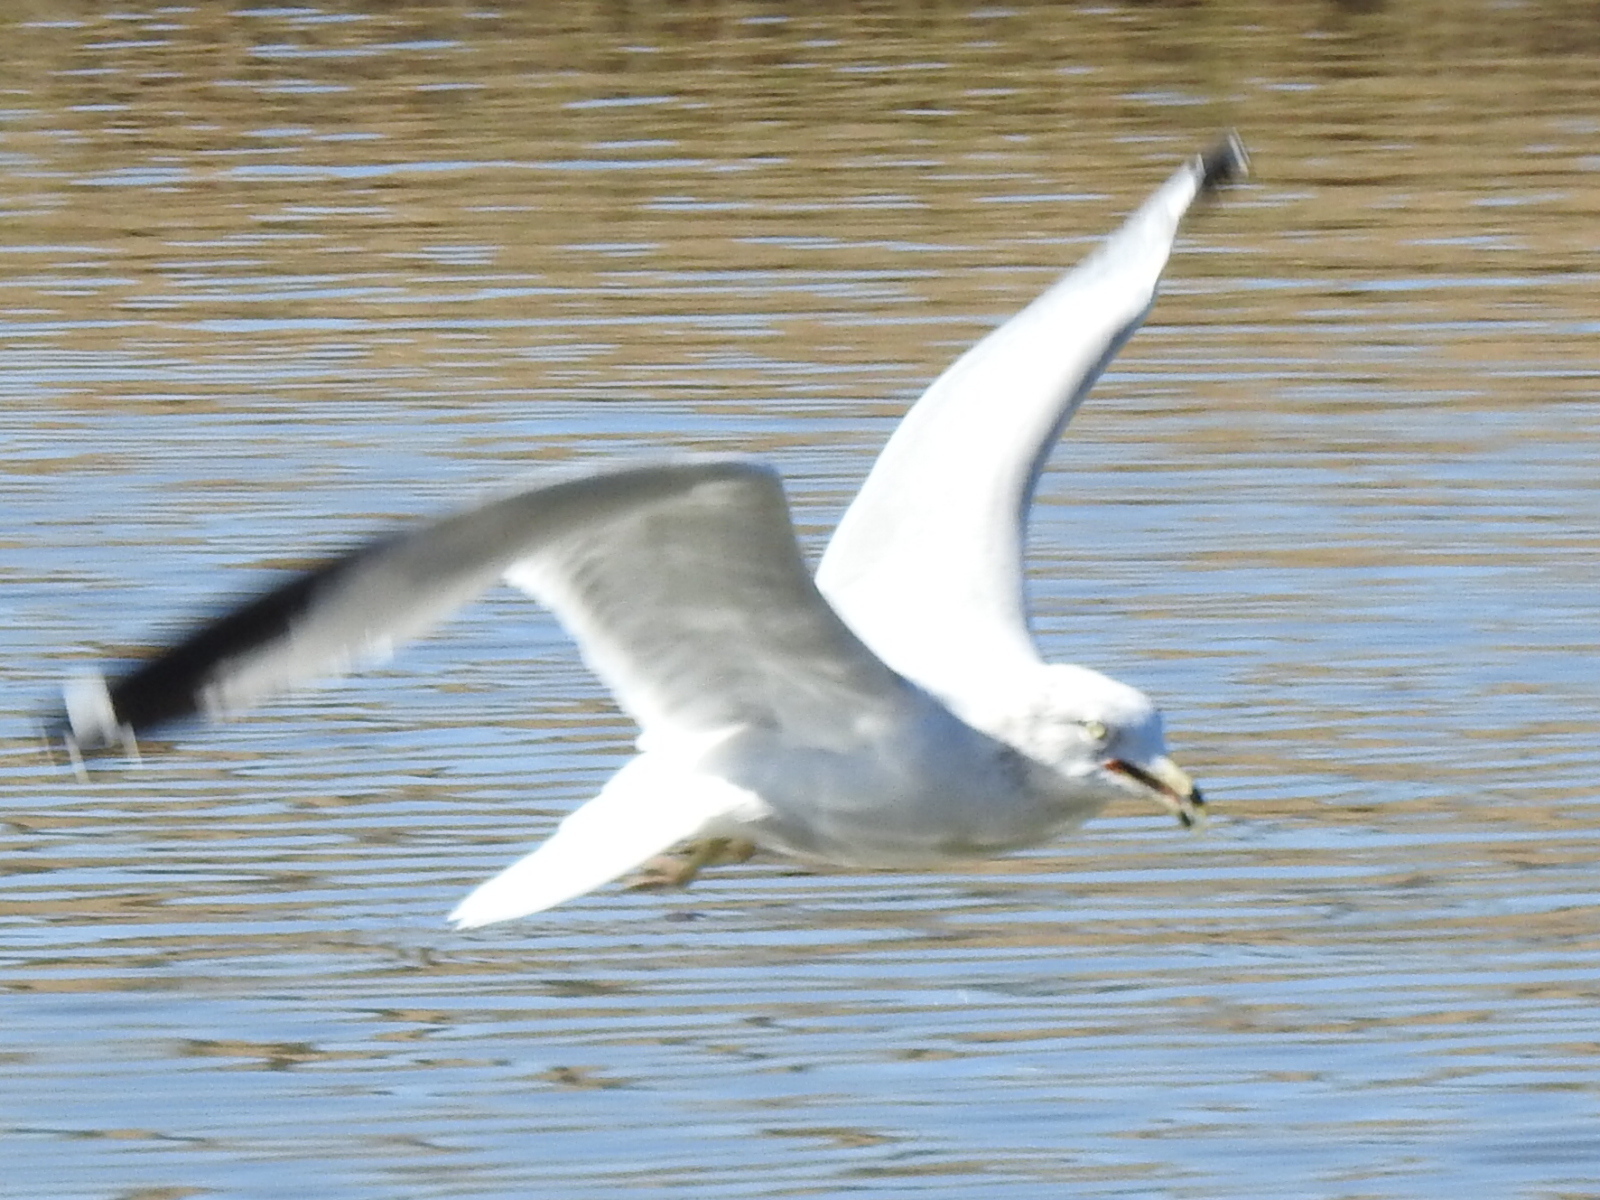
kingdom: Animalia
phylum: Chordata
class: Aves
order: Charadriiformes
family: Laridae
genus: Larus
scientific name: Larus delawarensis
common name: Ring-billed gull
